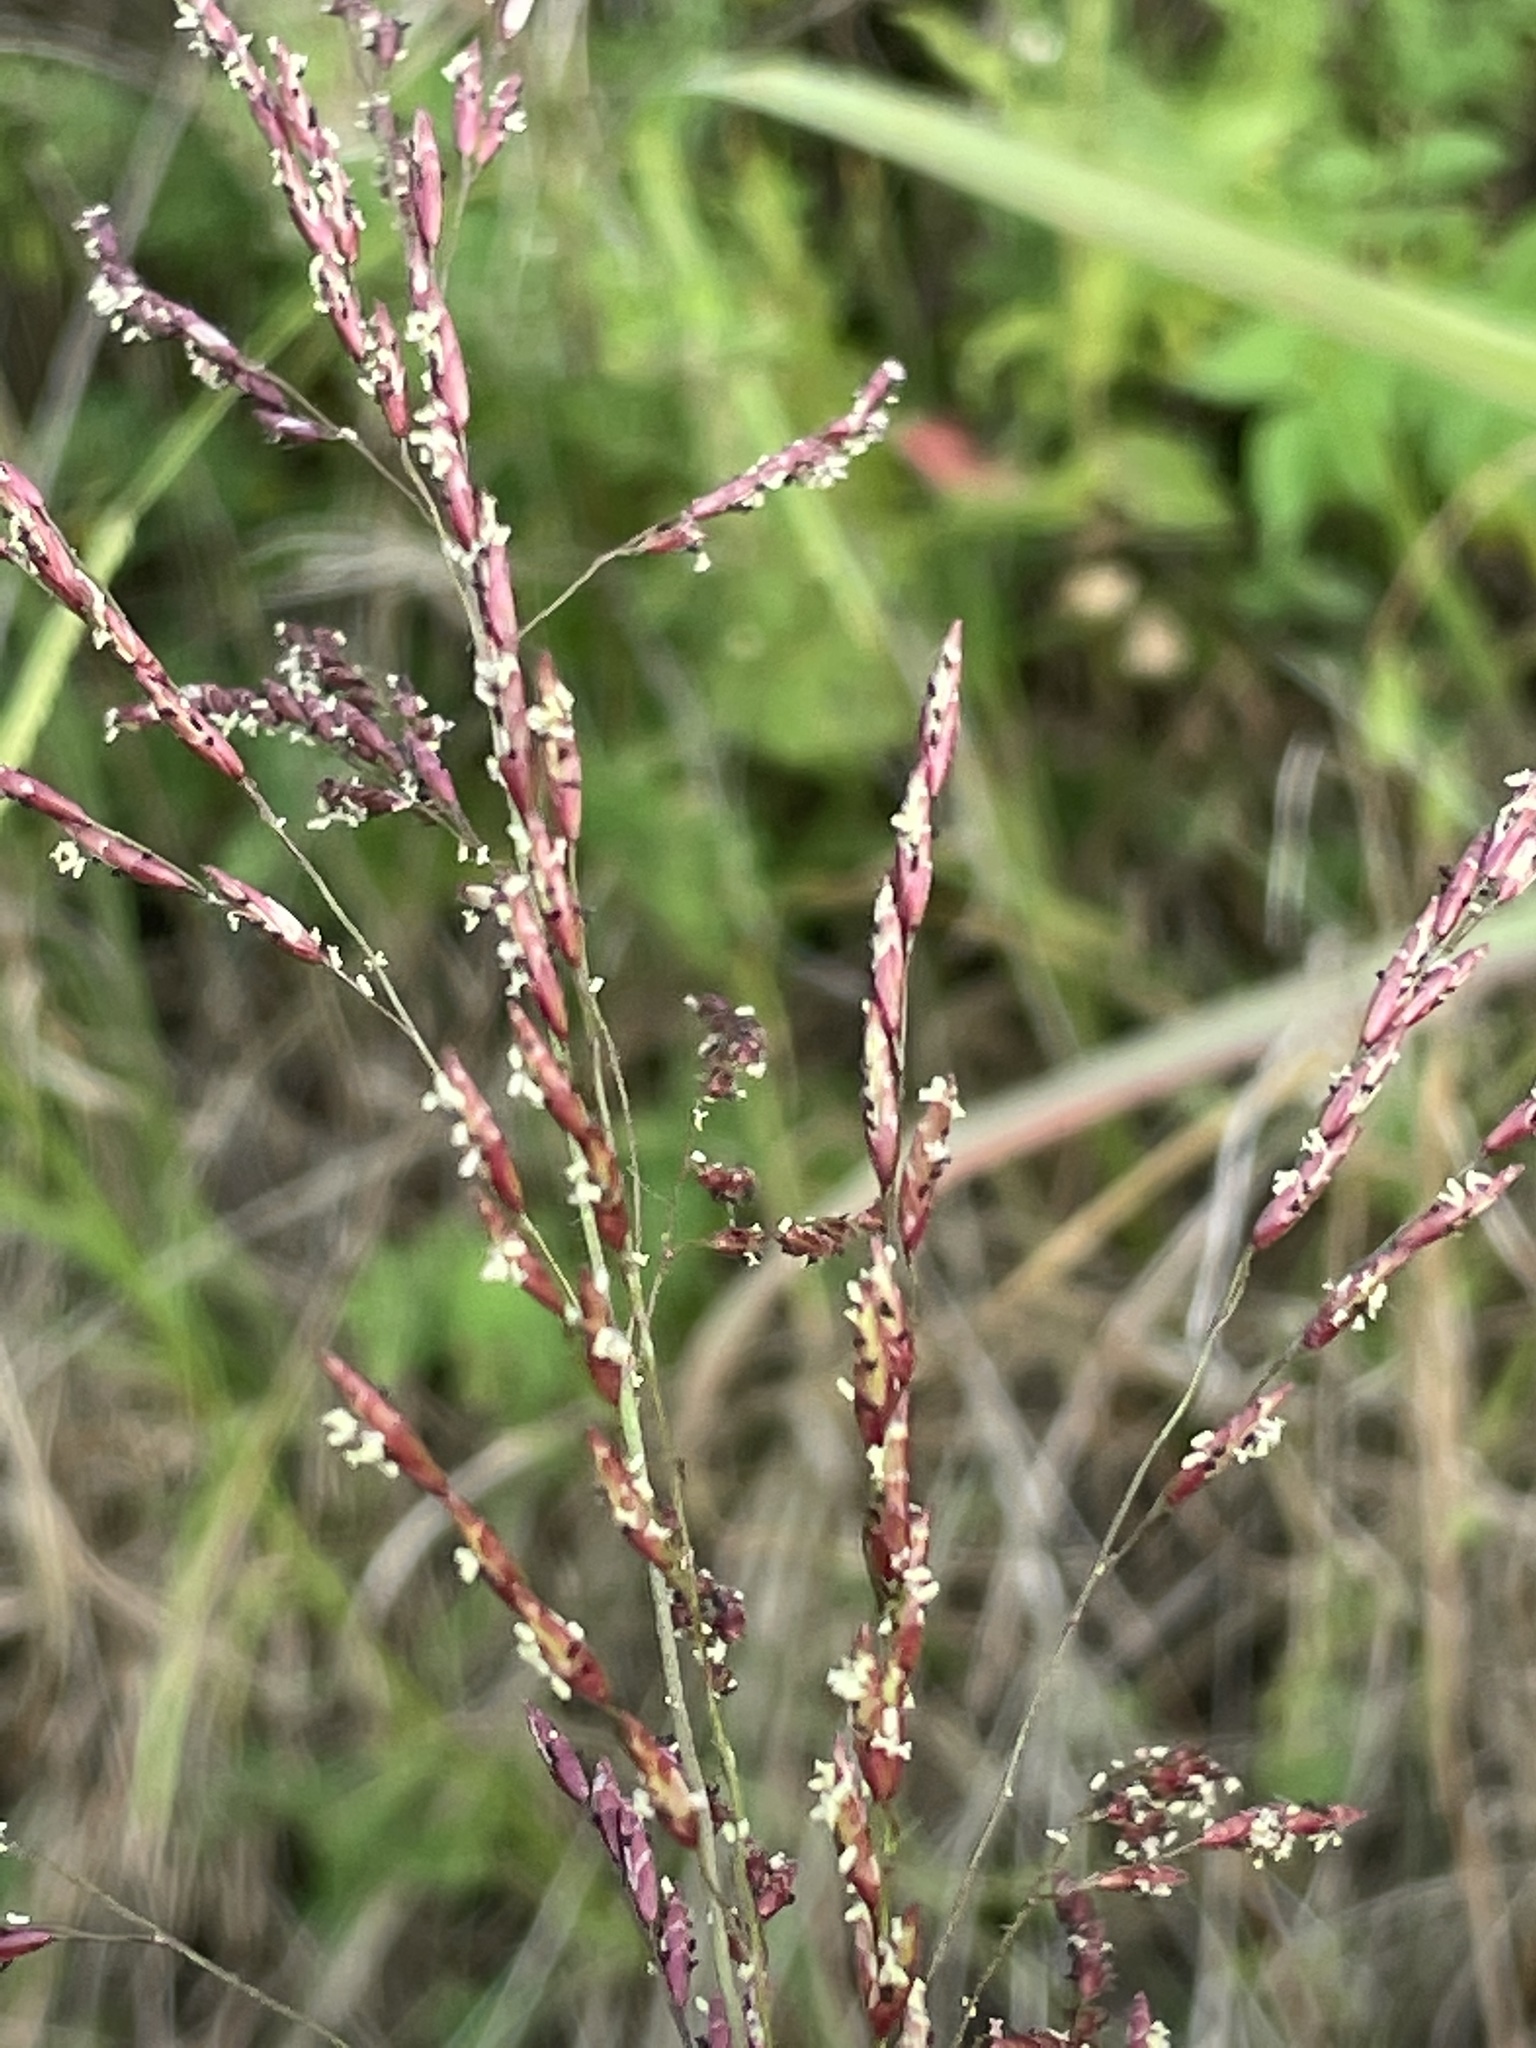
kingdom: Plantae
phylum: Tracheophyta
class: Liliopsida
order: Poales
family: Poaceae
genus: Tridens
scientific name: Tridens flavus
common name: Purpletop
